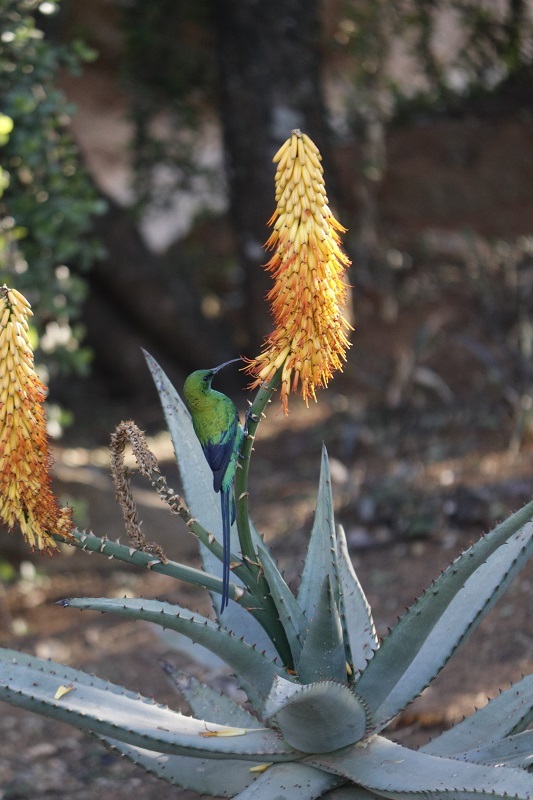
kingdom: Animalia
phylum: Chordata
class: Aves
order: Passeriformes
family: Nectariniidae
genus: Nectarinia
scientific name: Nectarinia famosa
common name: Malachite sunbird
